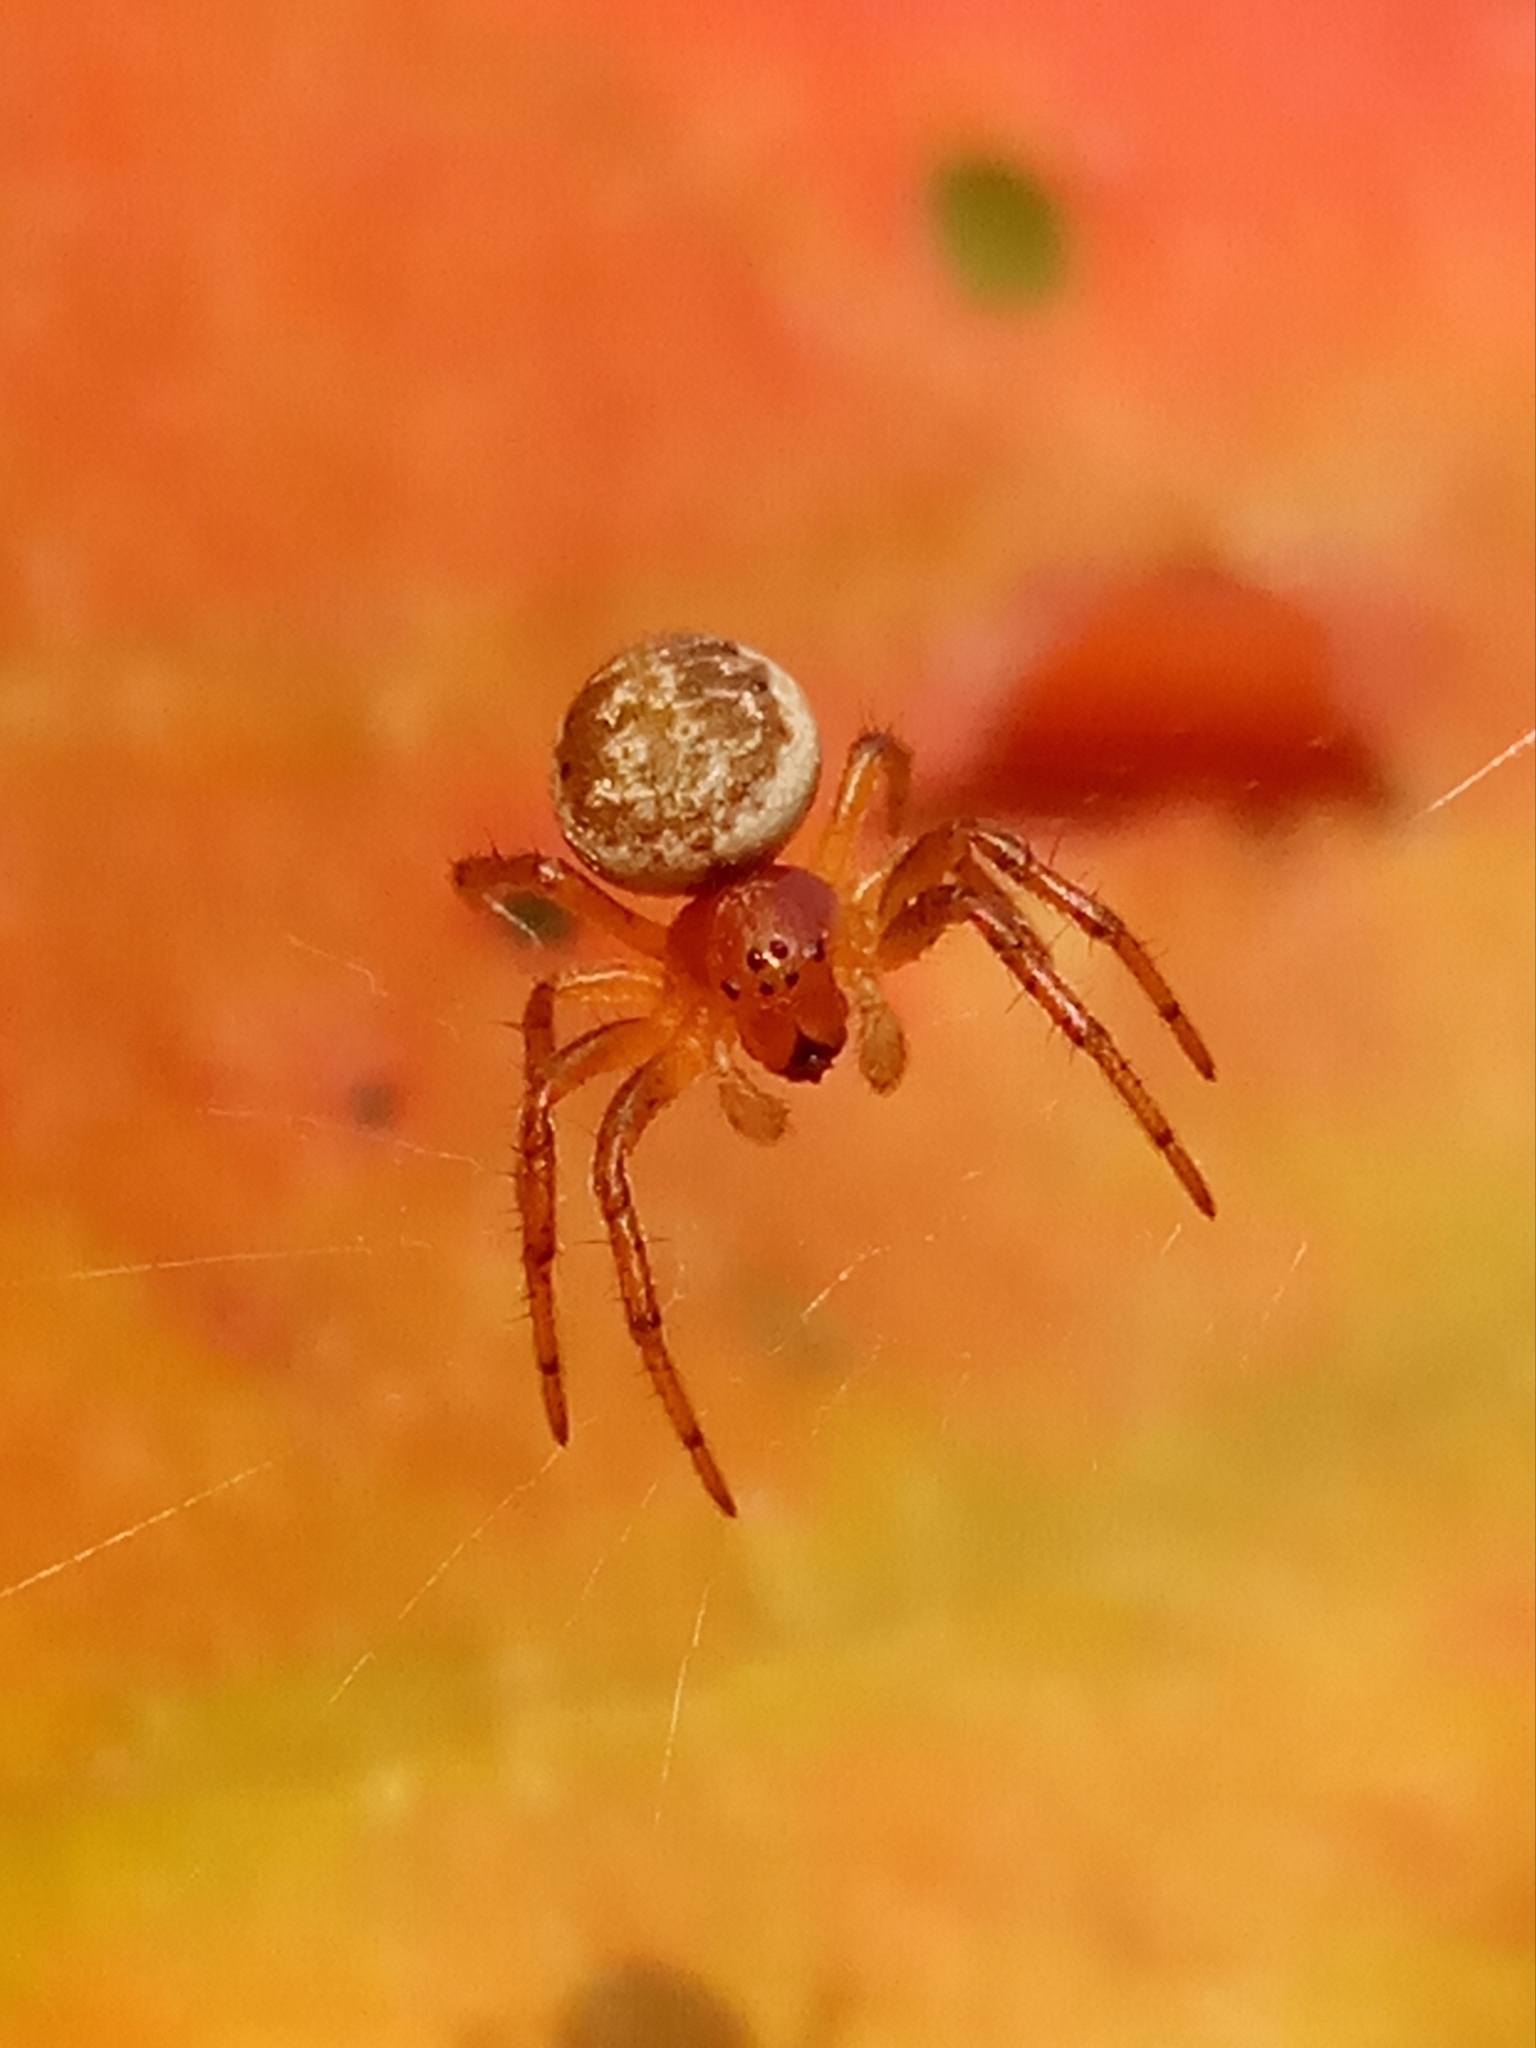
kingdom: Animalia
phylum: Arthropoda
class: Arachnida
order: Araneae
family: Araneidae
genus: Araniella
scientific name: Araniella
